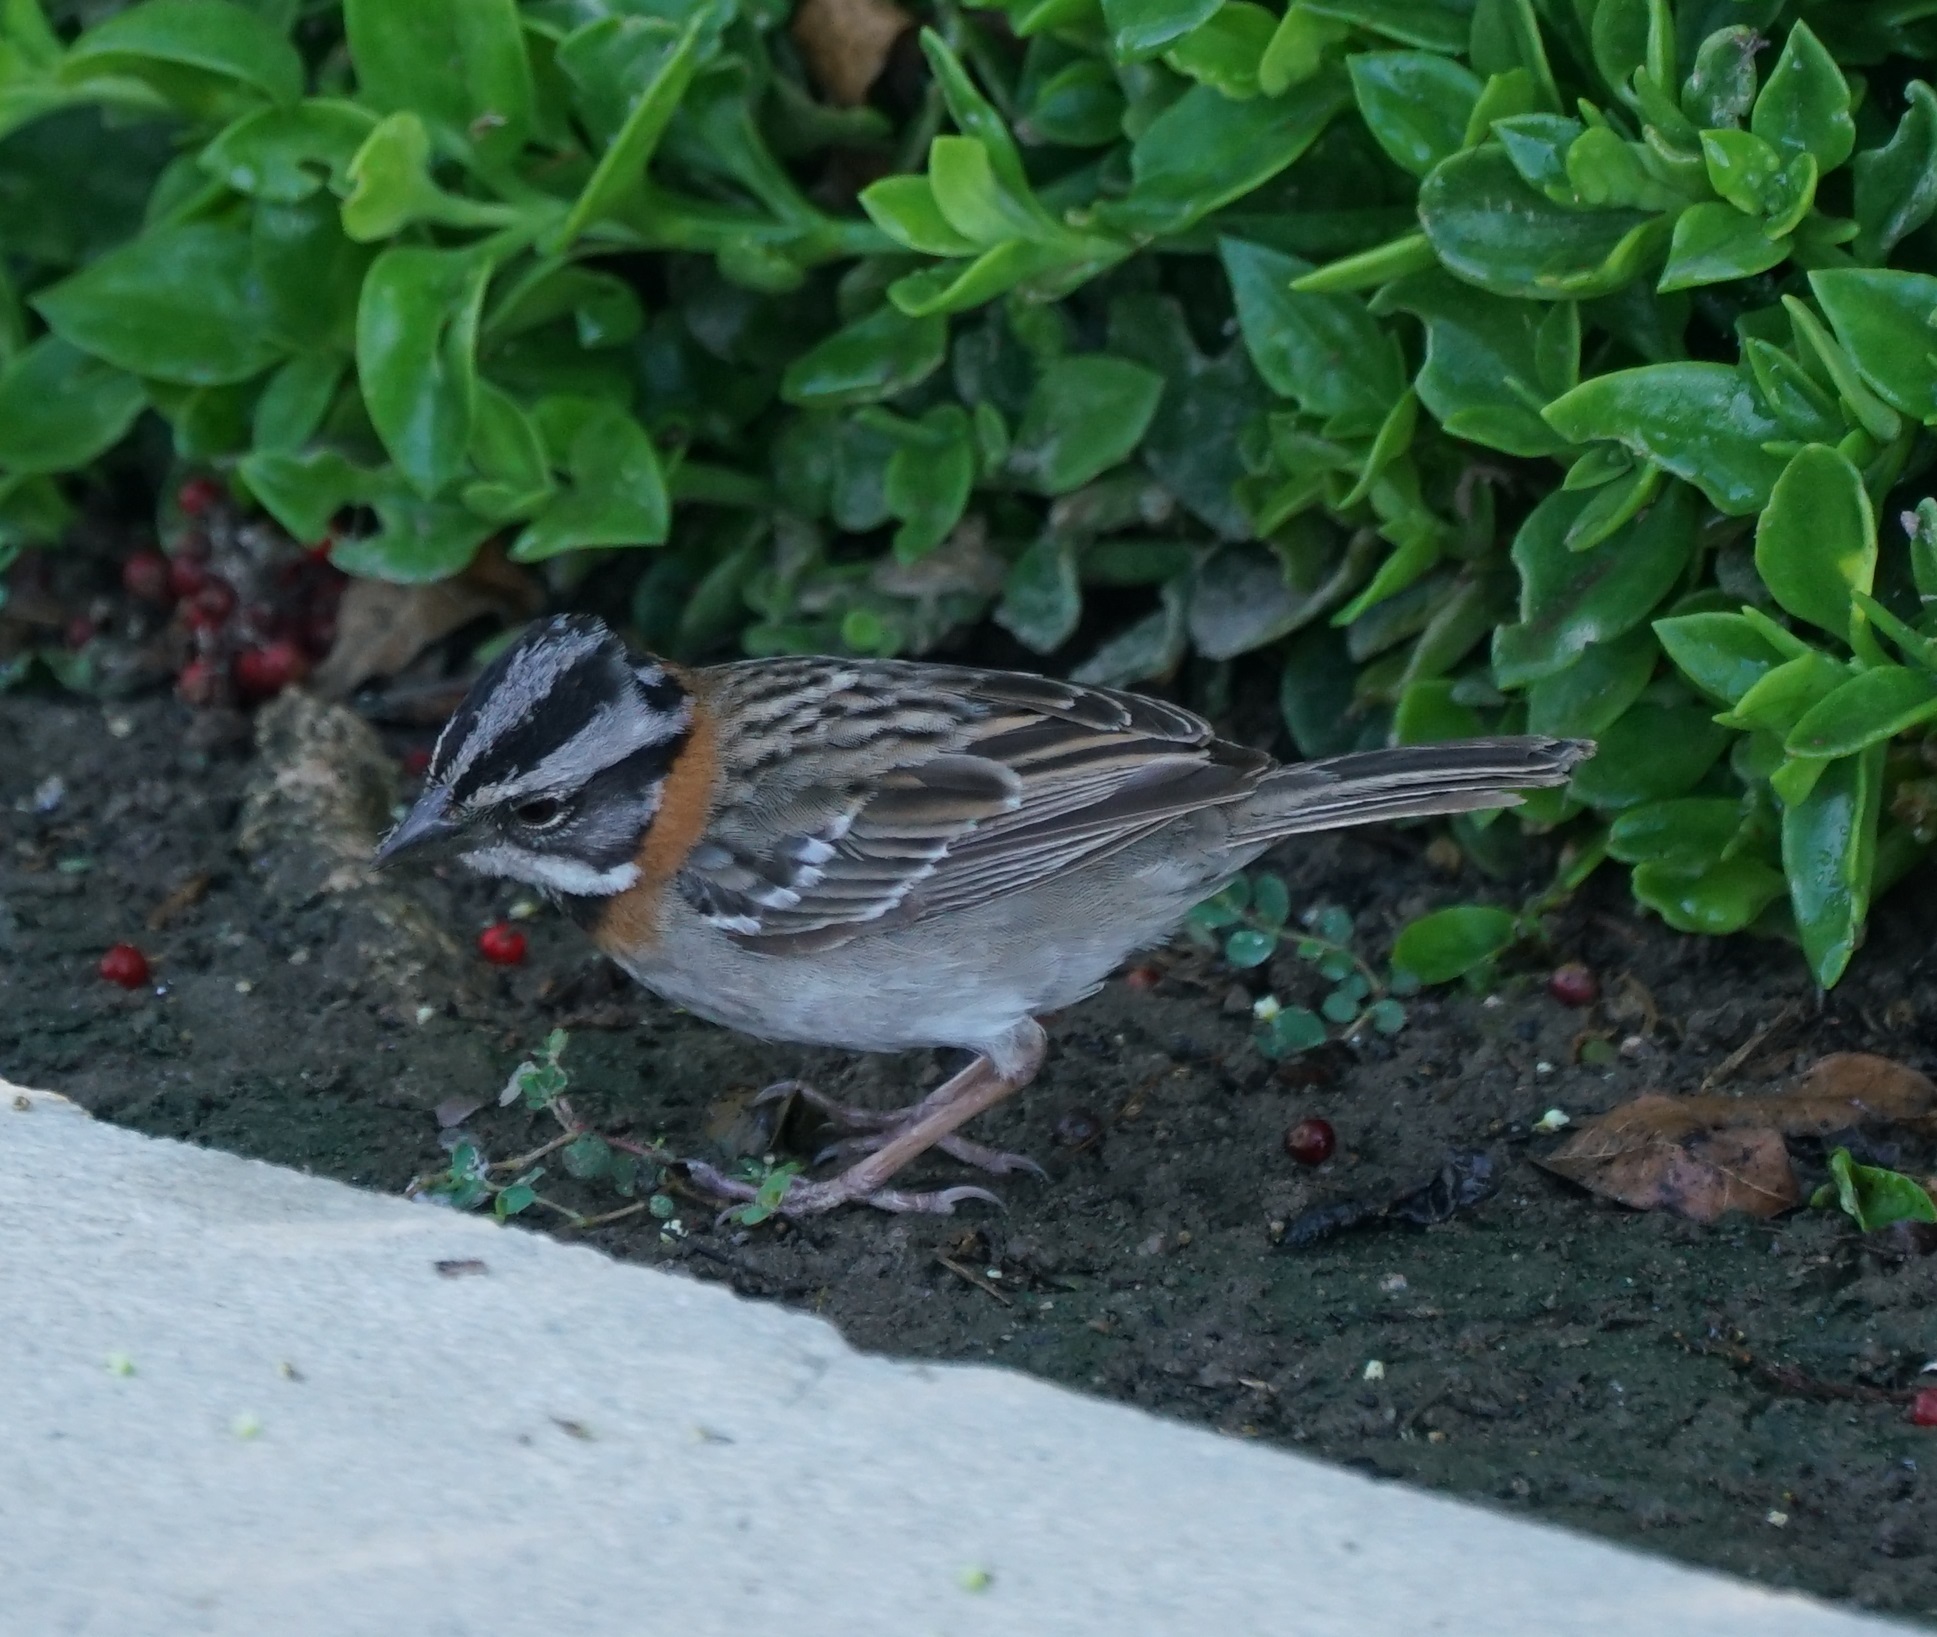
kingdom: Animalia
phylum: Chordata
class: Aves
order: Passeriformes
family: Passerellidae
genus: Zonotrichia
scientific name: Zonotrichia capensis
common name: Rufous-collared sparrow
